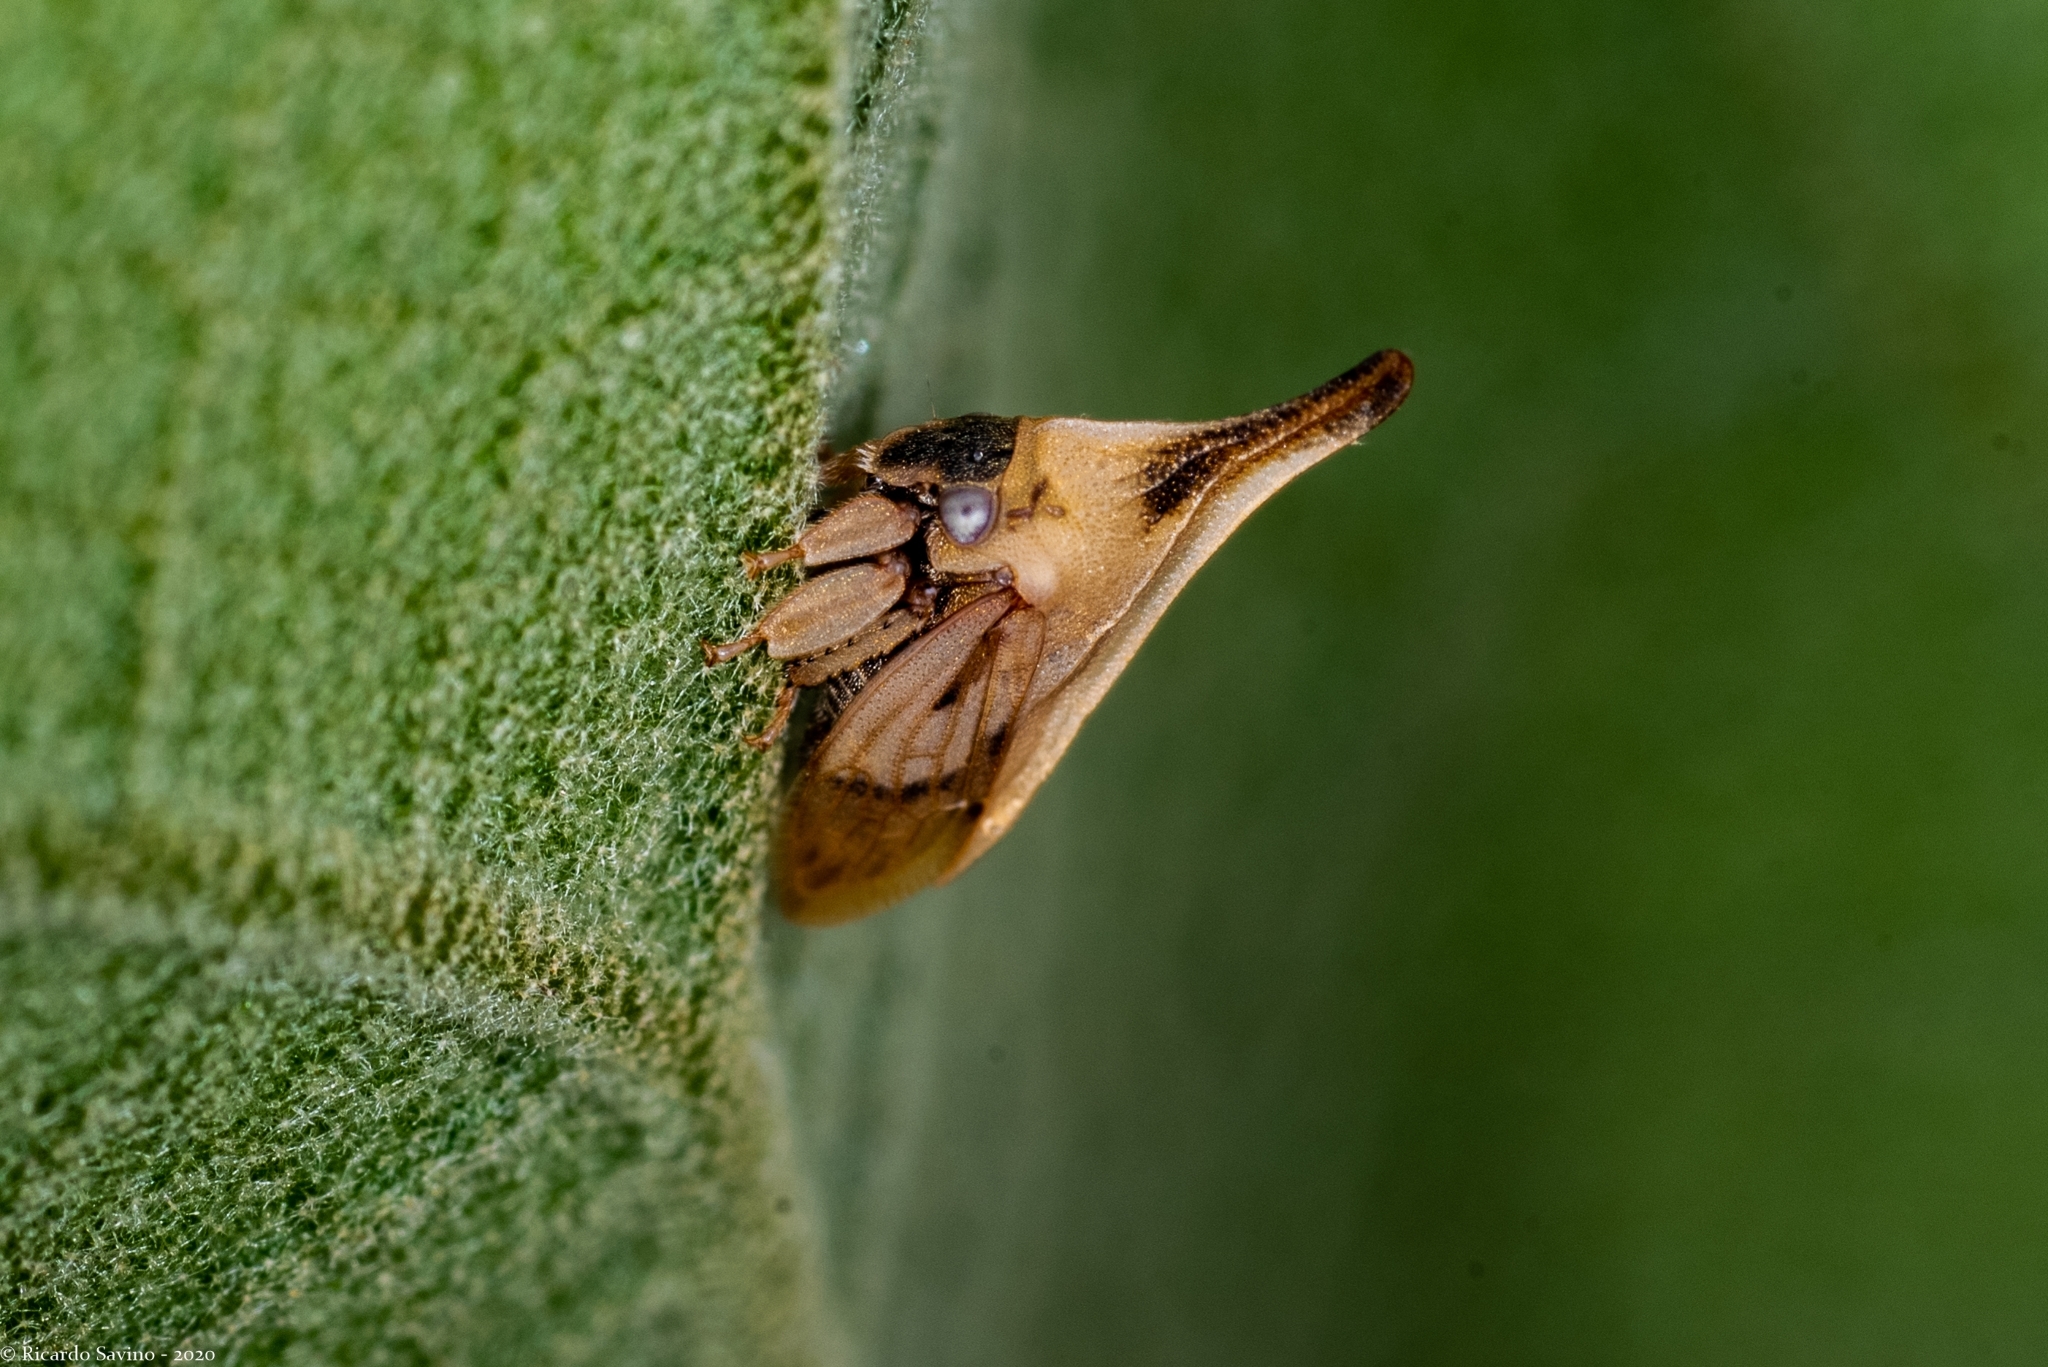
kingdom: Animalia
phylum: Arthropoda
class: Insecta
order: Hemiptera
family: Membracidae
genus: Enchenopa
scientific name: Enchenopa brasiliensis
